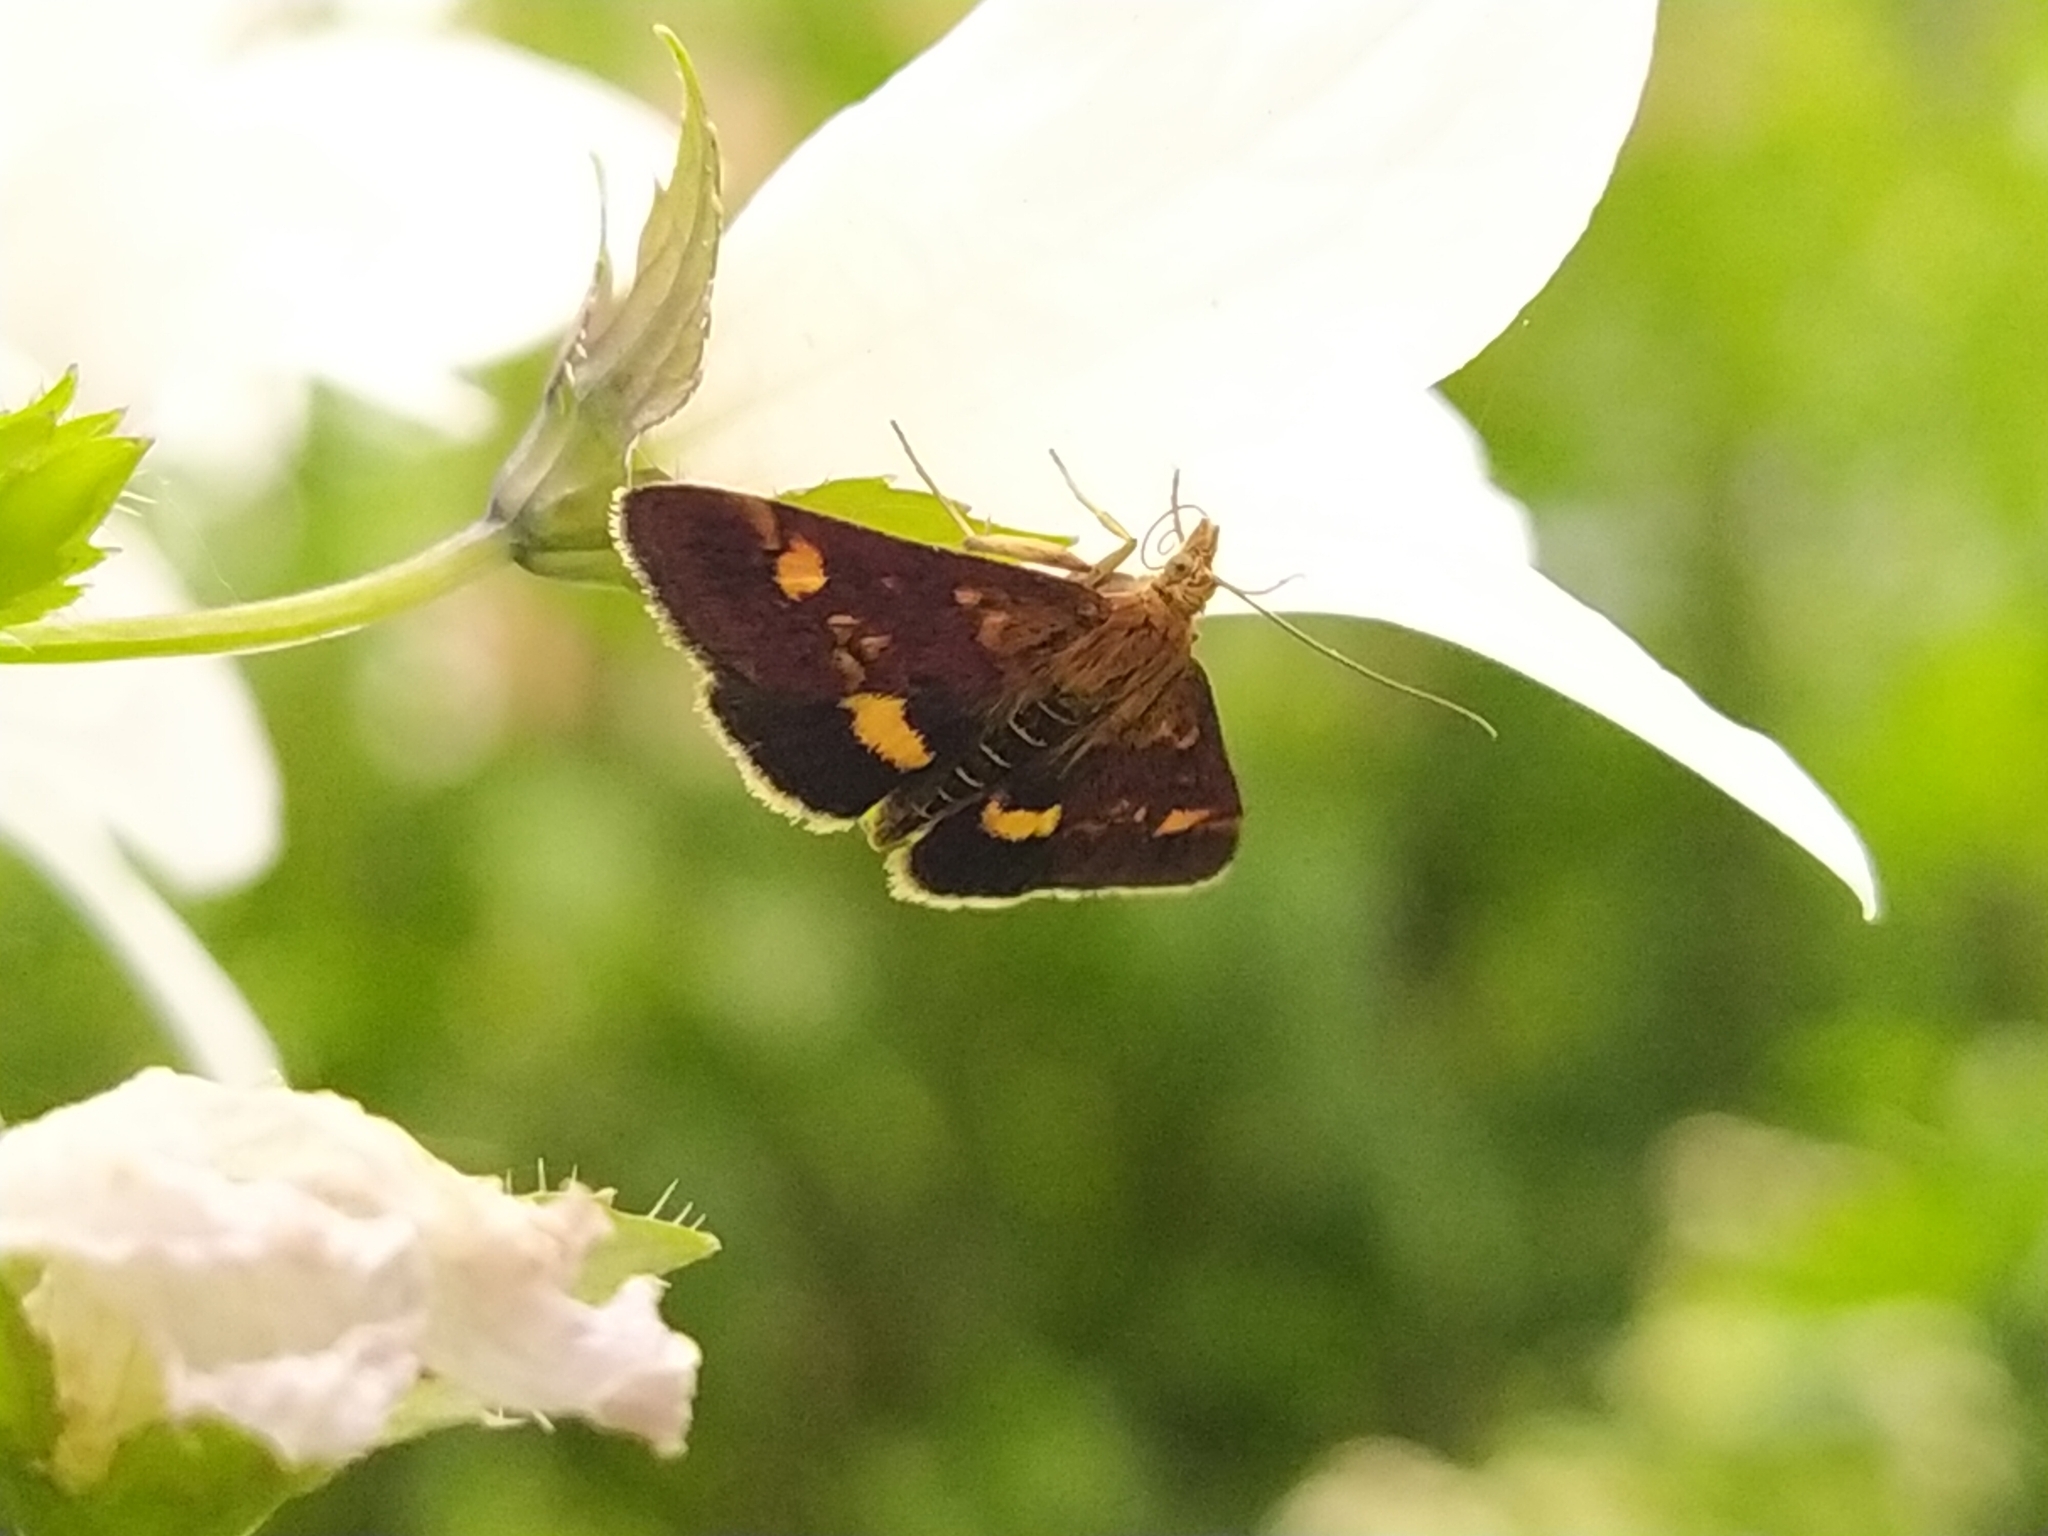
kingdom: Animalia
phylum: Arthropoda
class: Insecta
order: Lepidoptera
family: Crambidae
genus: Pyrausta
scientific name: Pyrausta aurata
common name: Small purple & gold
